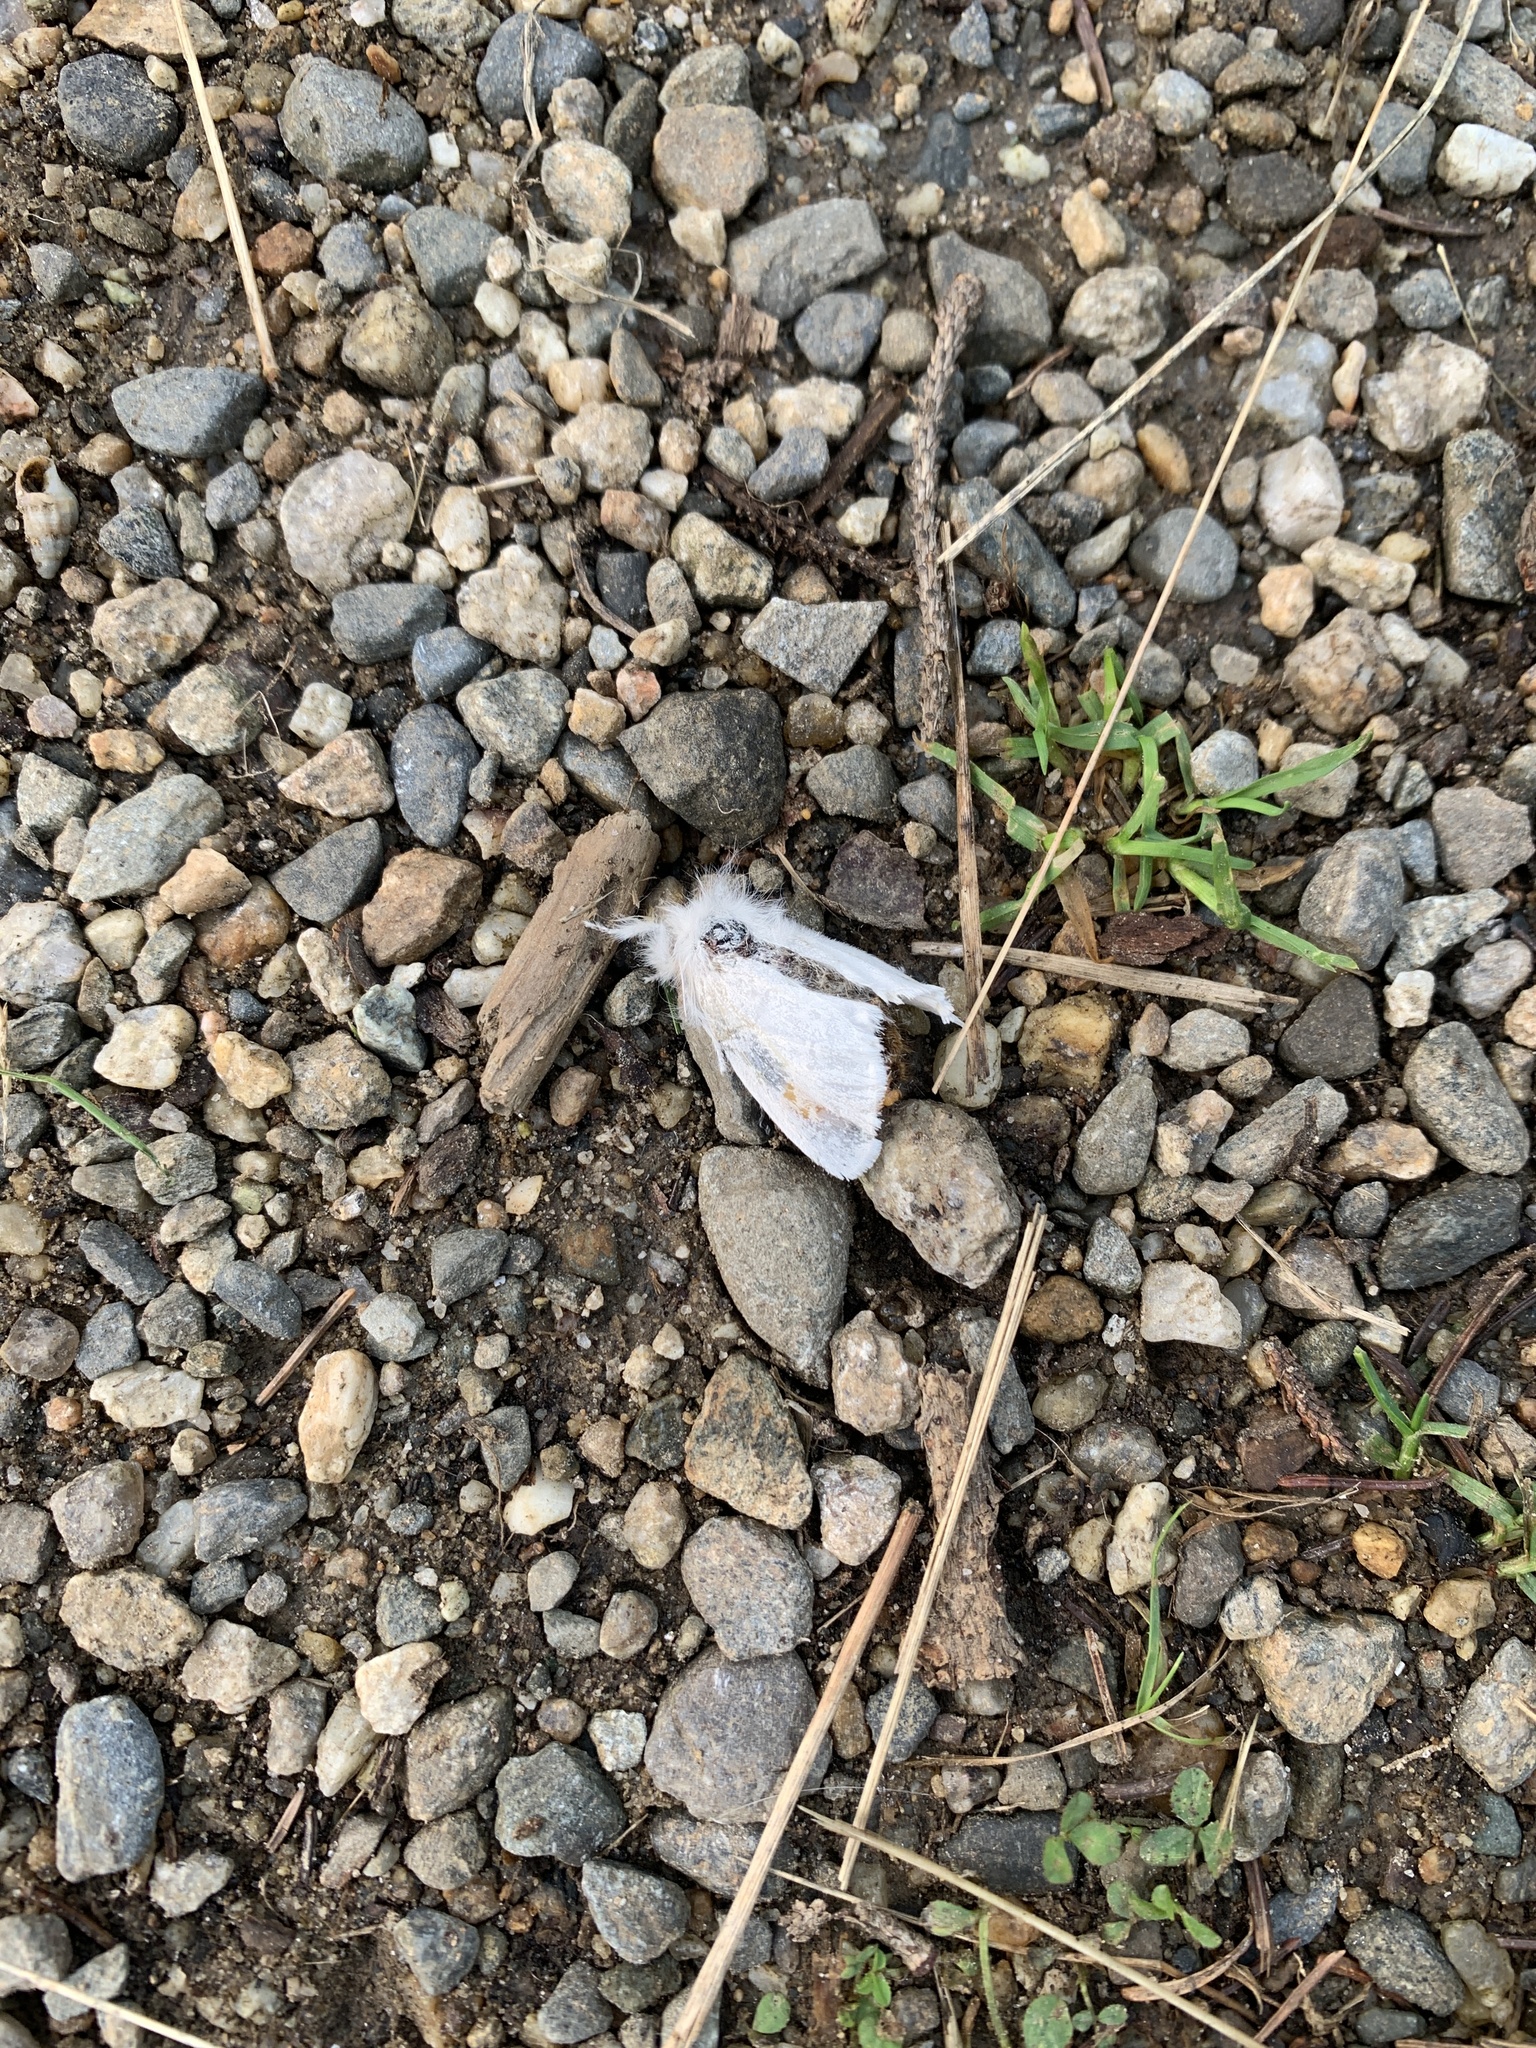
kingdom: Animalia
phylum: Arthropoda
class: Insecta
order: Lepidoptera
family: Erebidae
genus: Euproctis
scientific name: Euproctis chrysorrhoea
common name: Brown-tail
